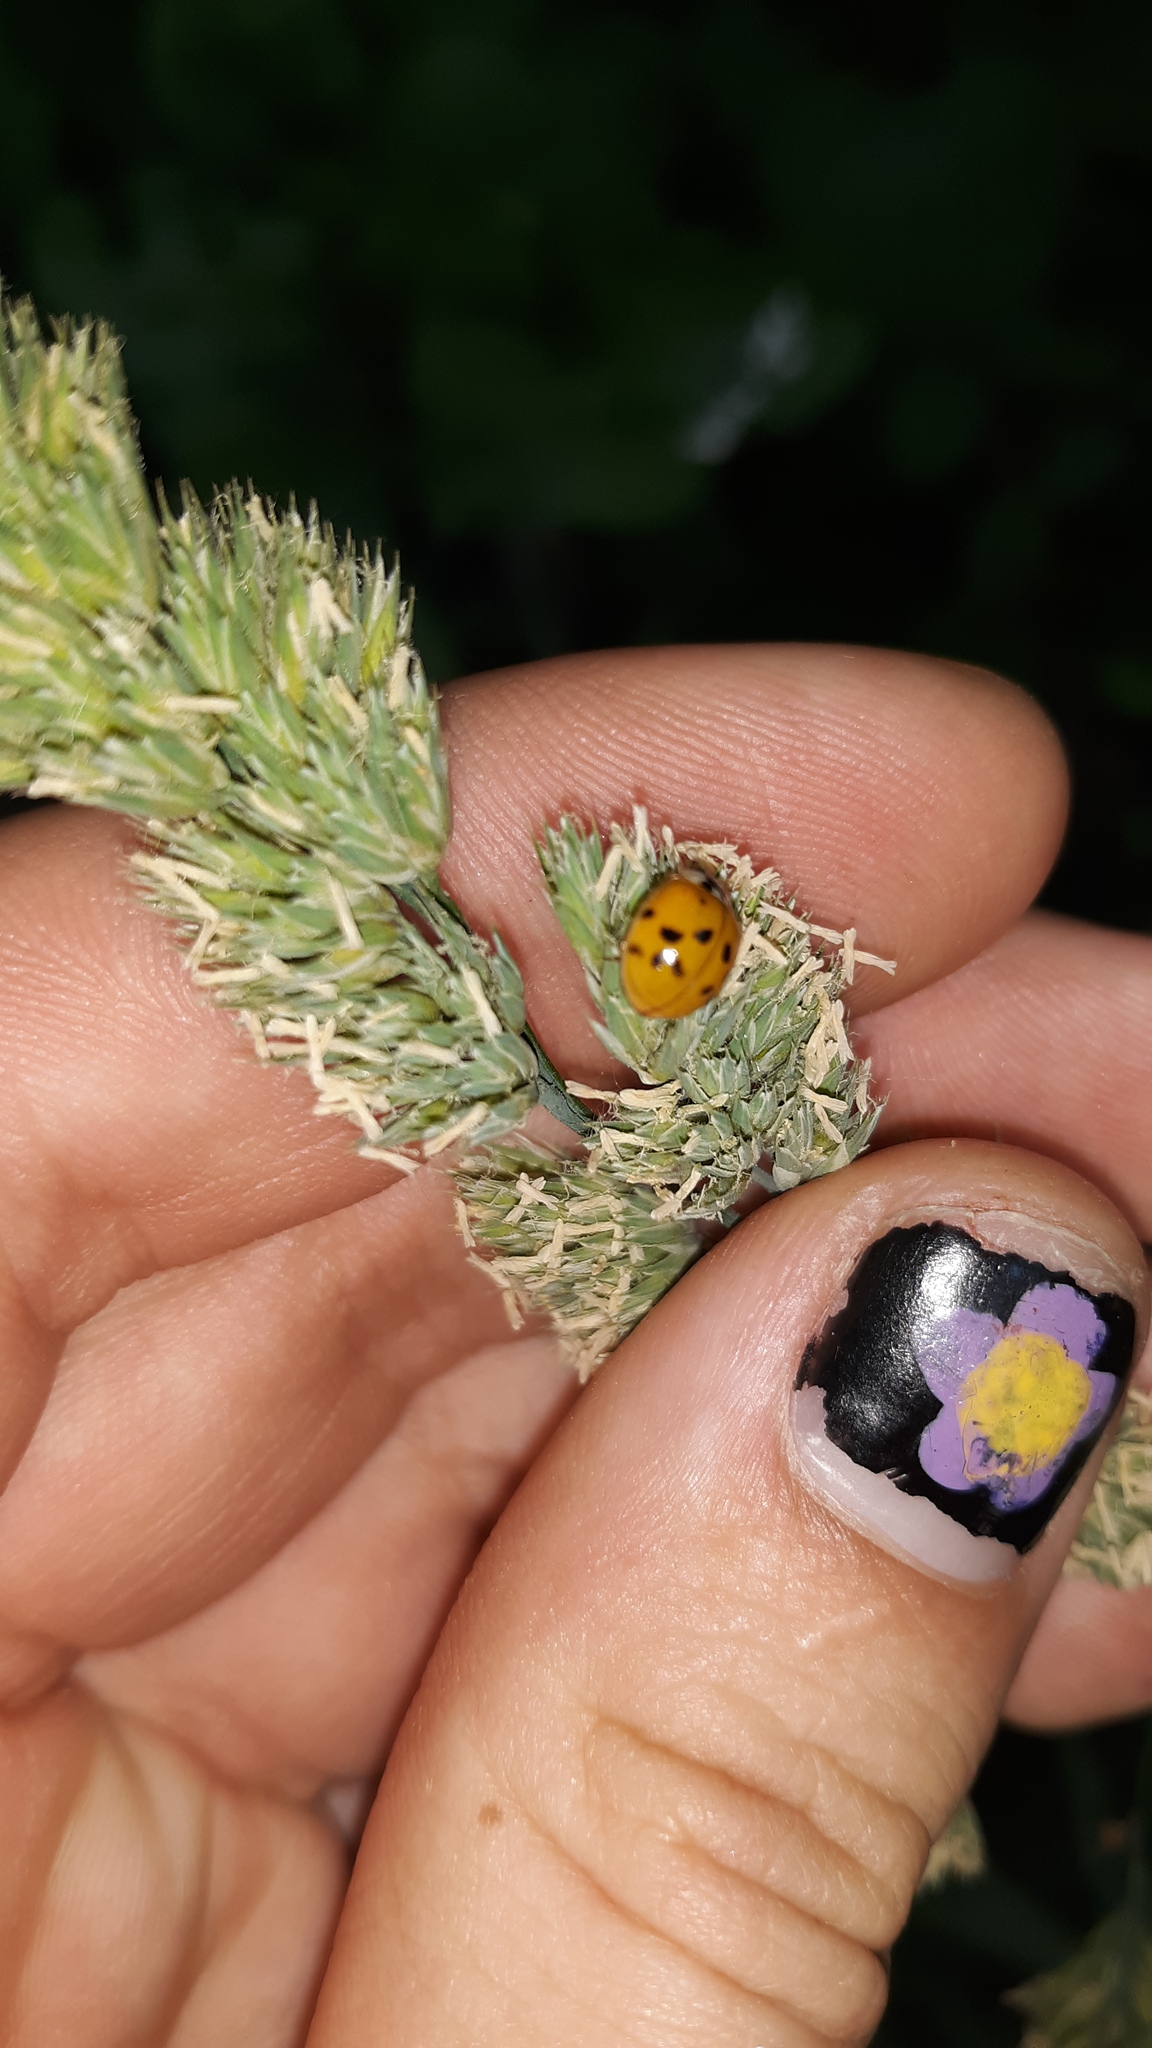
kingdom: Animalia
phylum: Arthropoda
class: Insecta
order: Coleoptera
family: Coccinellidae
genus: Harmonia
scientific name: Harmonia axyridis
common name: Harlequin ladybird
